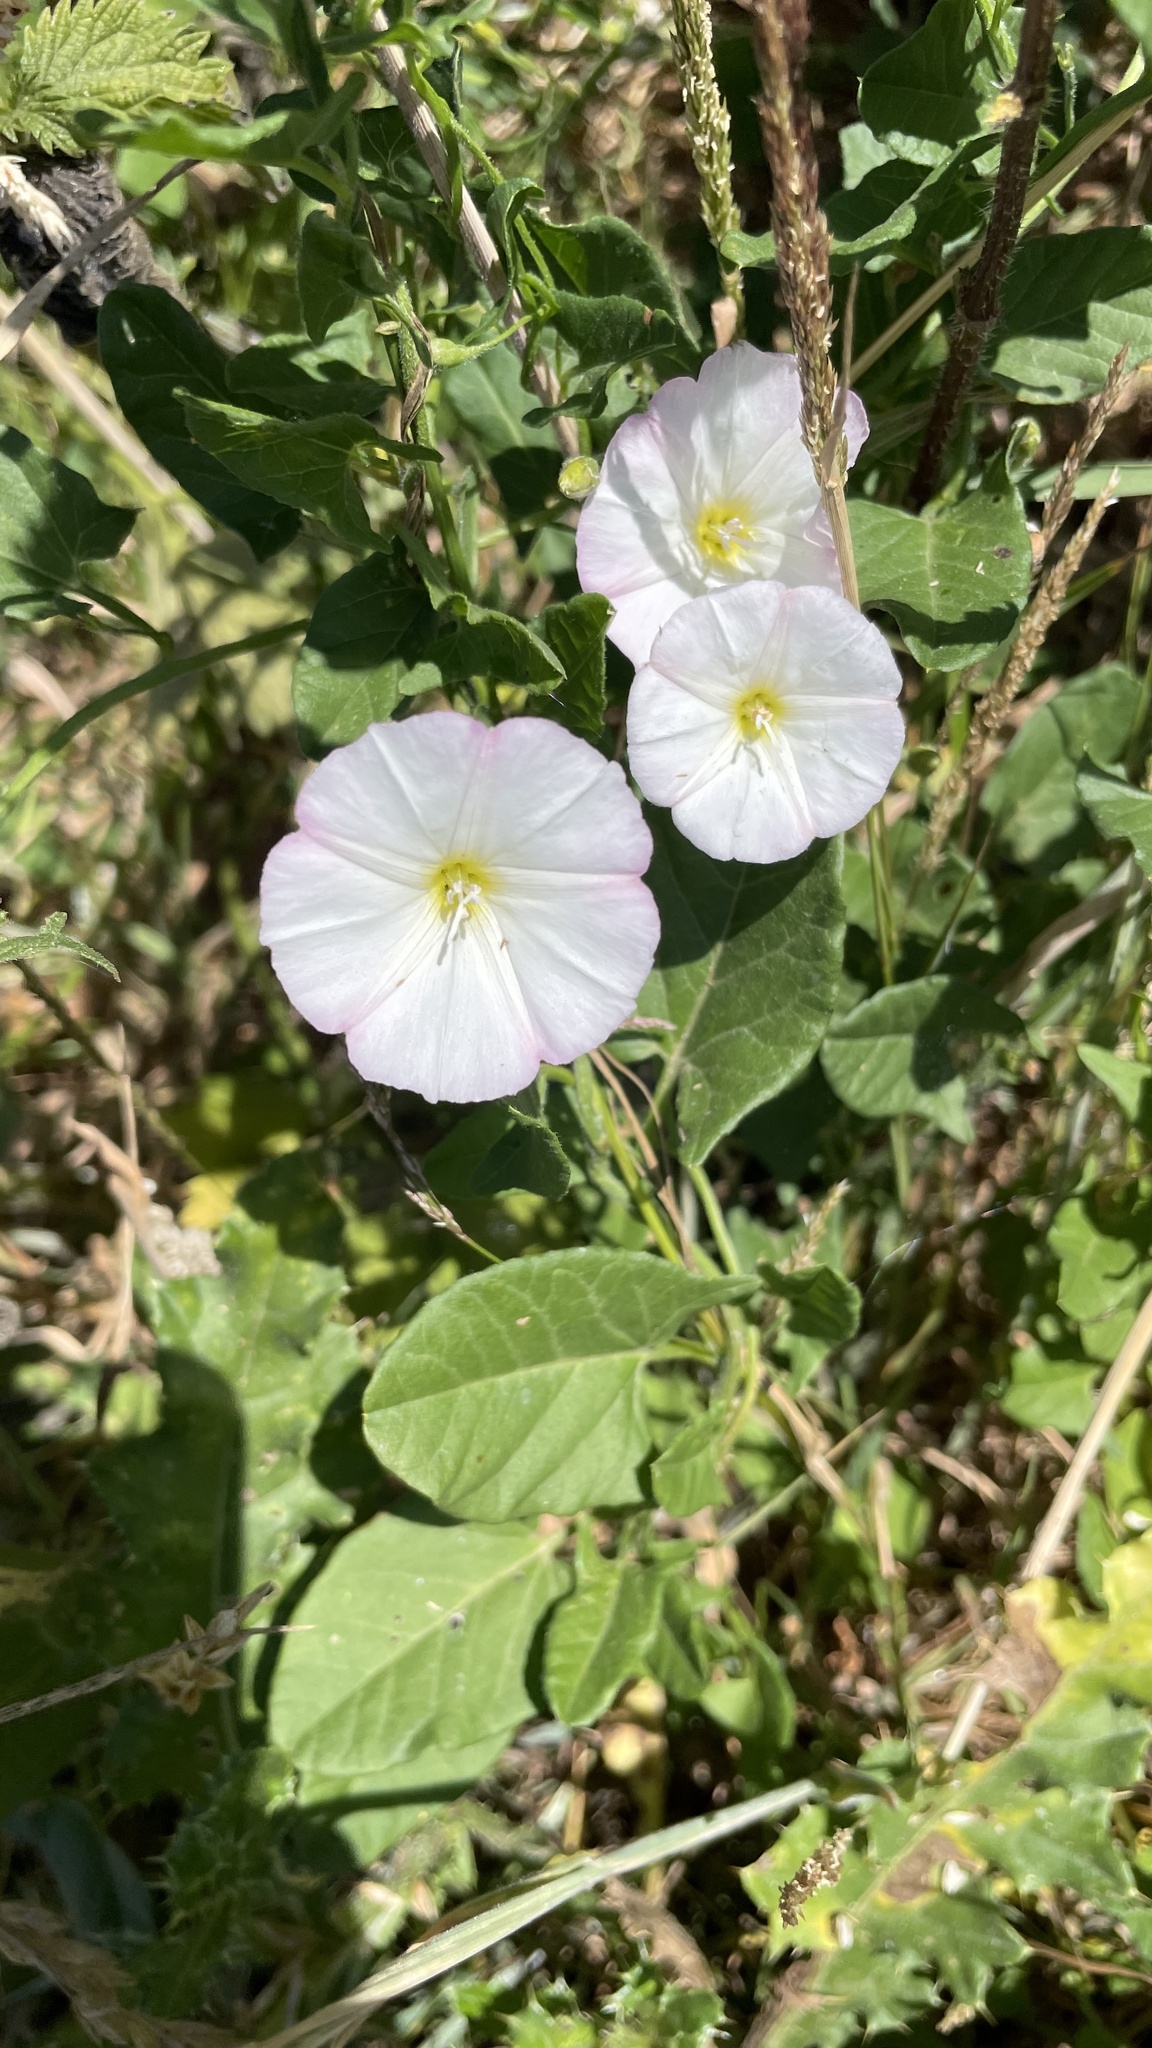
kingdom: Plantae
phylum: Tracheophyta
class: Magnoliopsida
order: Solanales
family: Convolvulaceae
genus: Convolvulus
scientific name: Convolvulus arvensis
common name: Field bindweed
